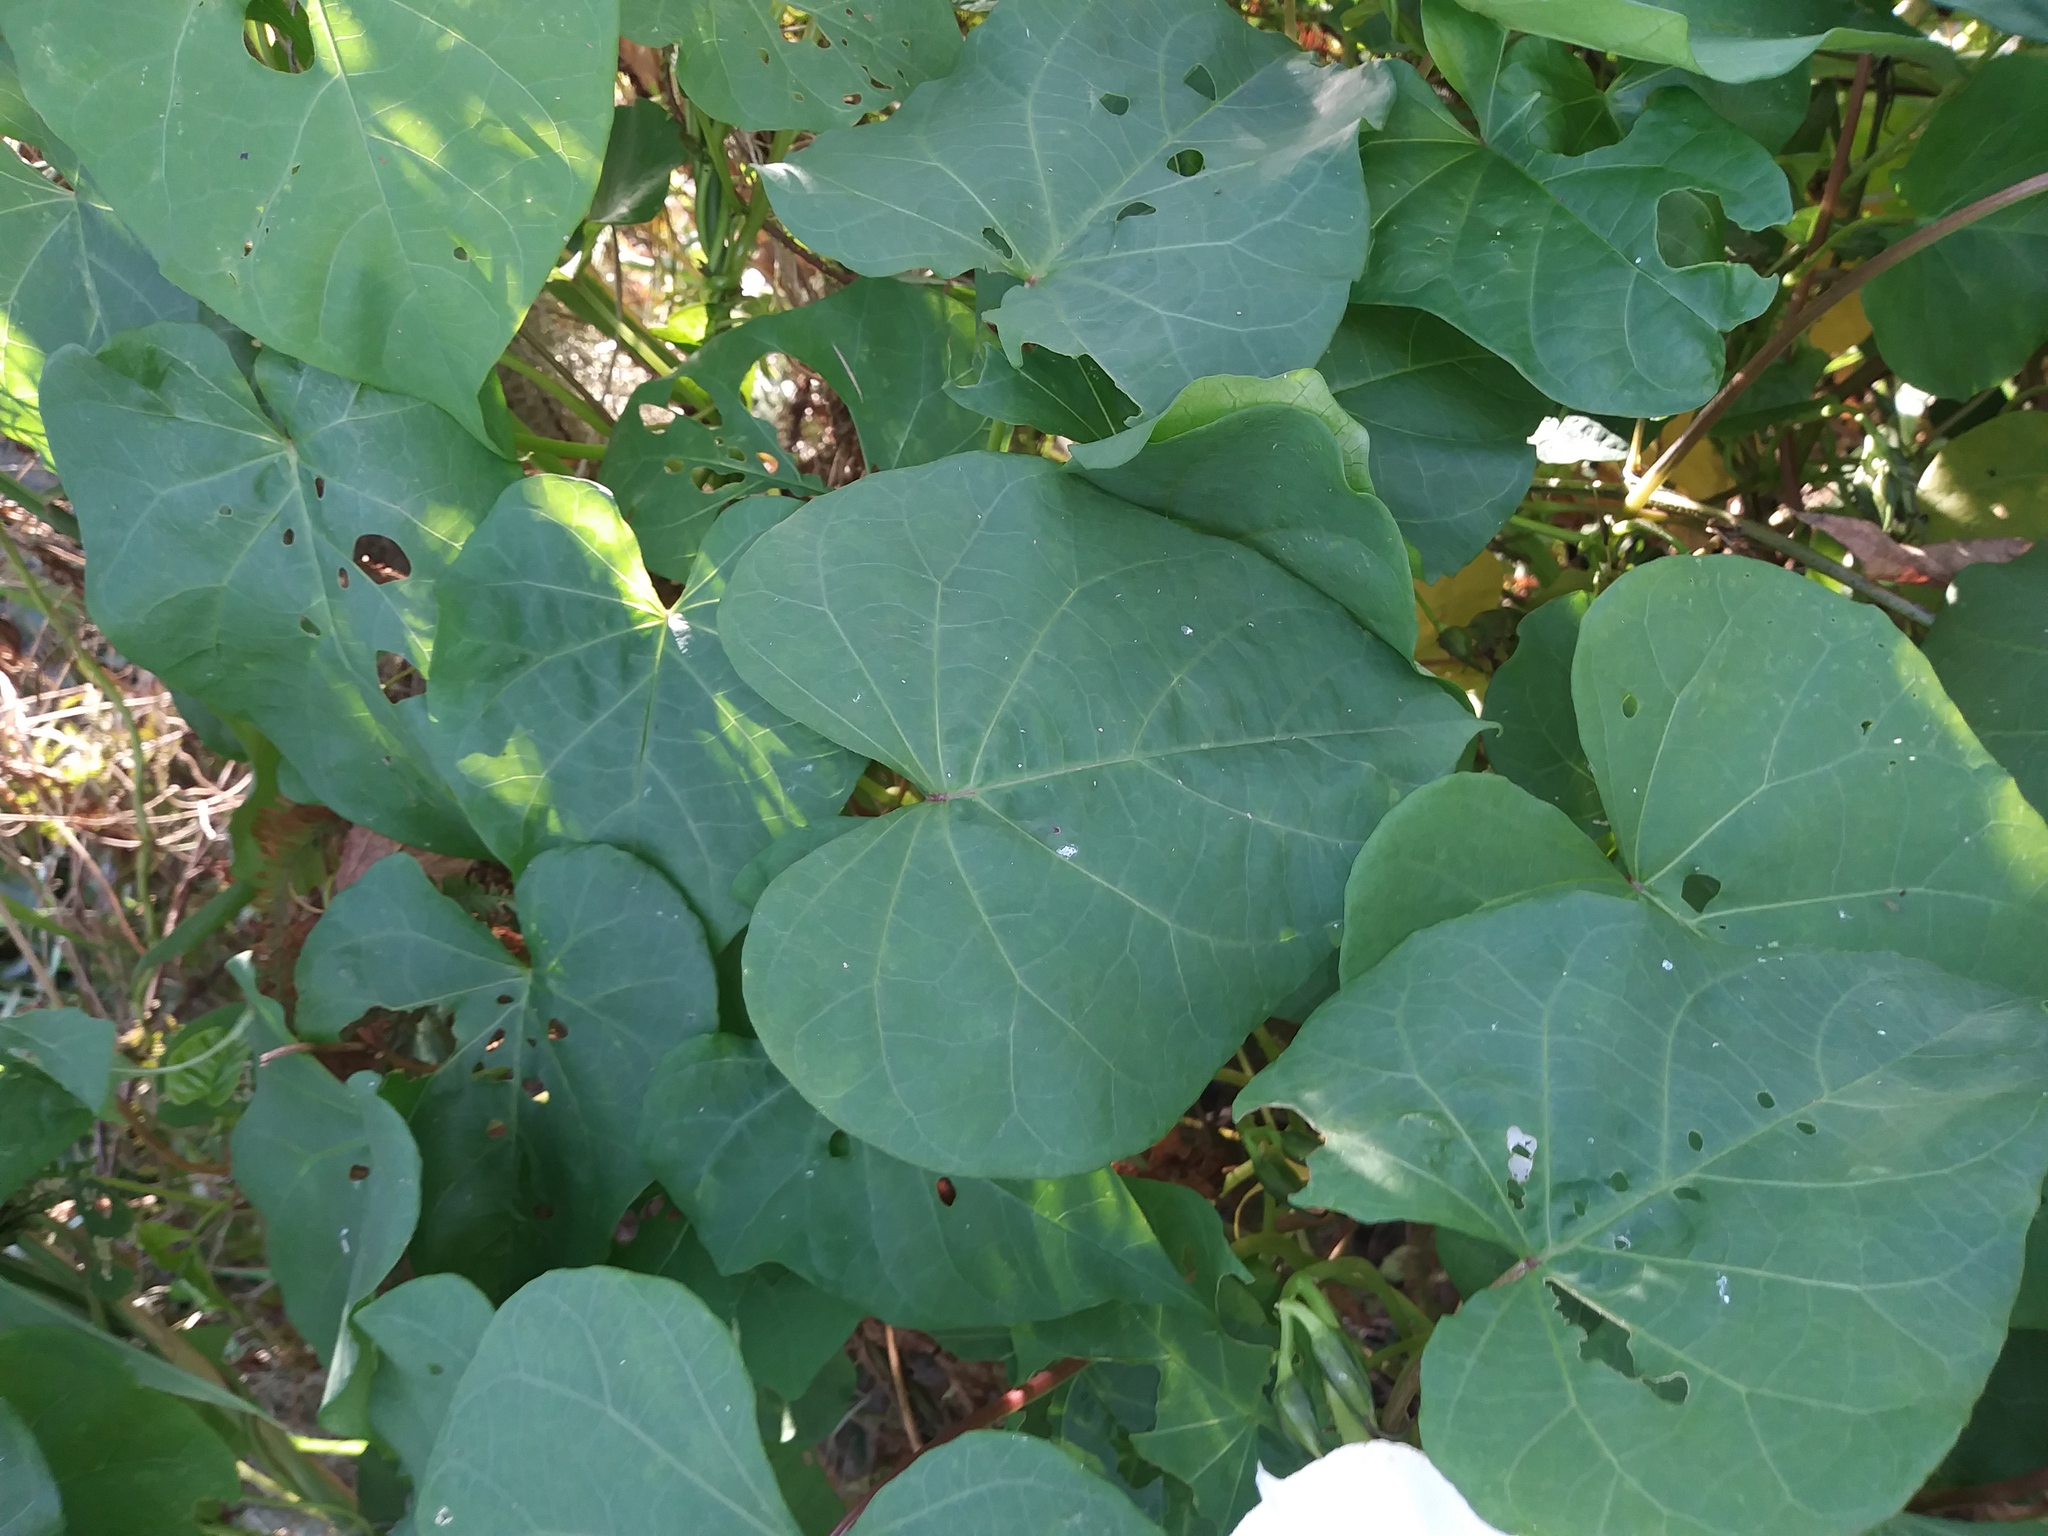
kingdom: Plantae
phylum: Tracheophyta
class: Magnoliopsida
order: Solanales
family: Convolvulaceae
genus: Ipomoea
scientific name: Ipomoea alba
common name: Moonflower
